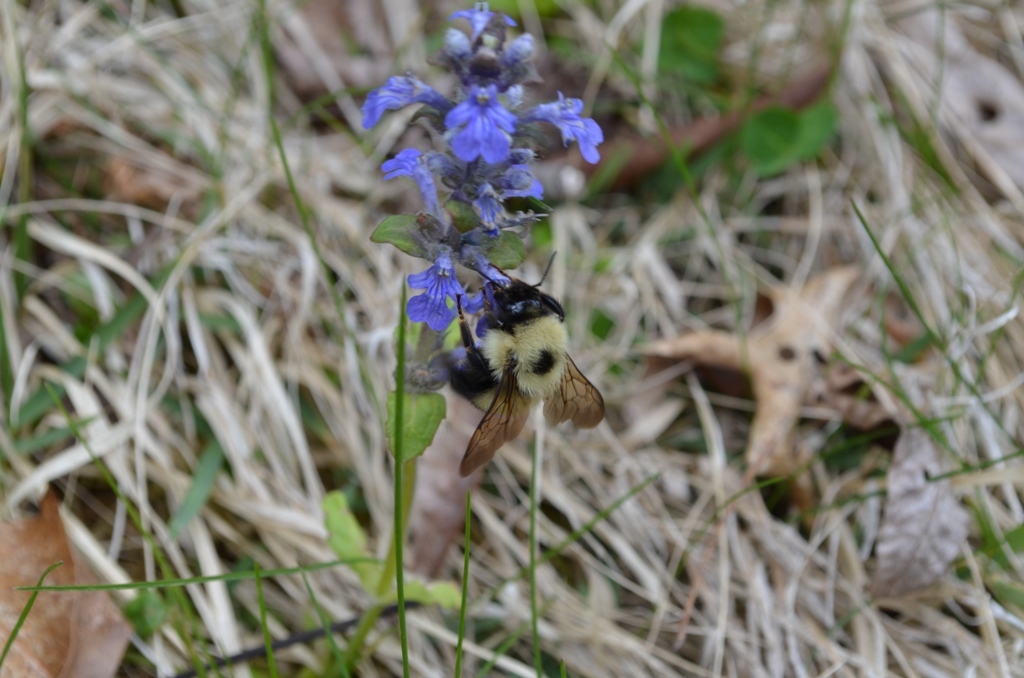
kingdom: Plantae
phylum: Tracheophyta
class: Magnoliopsida
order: Lamiales
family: Lamiaceae
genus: Ajuga
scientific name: Ajuga reptans
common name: Bugle
